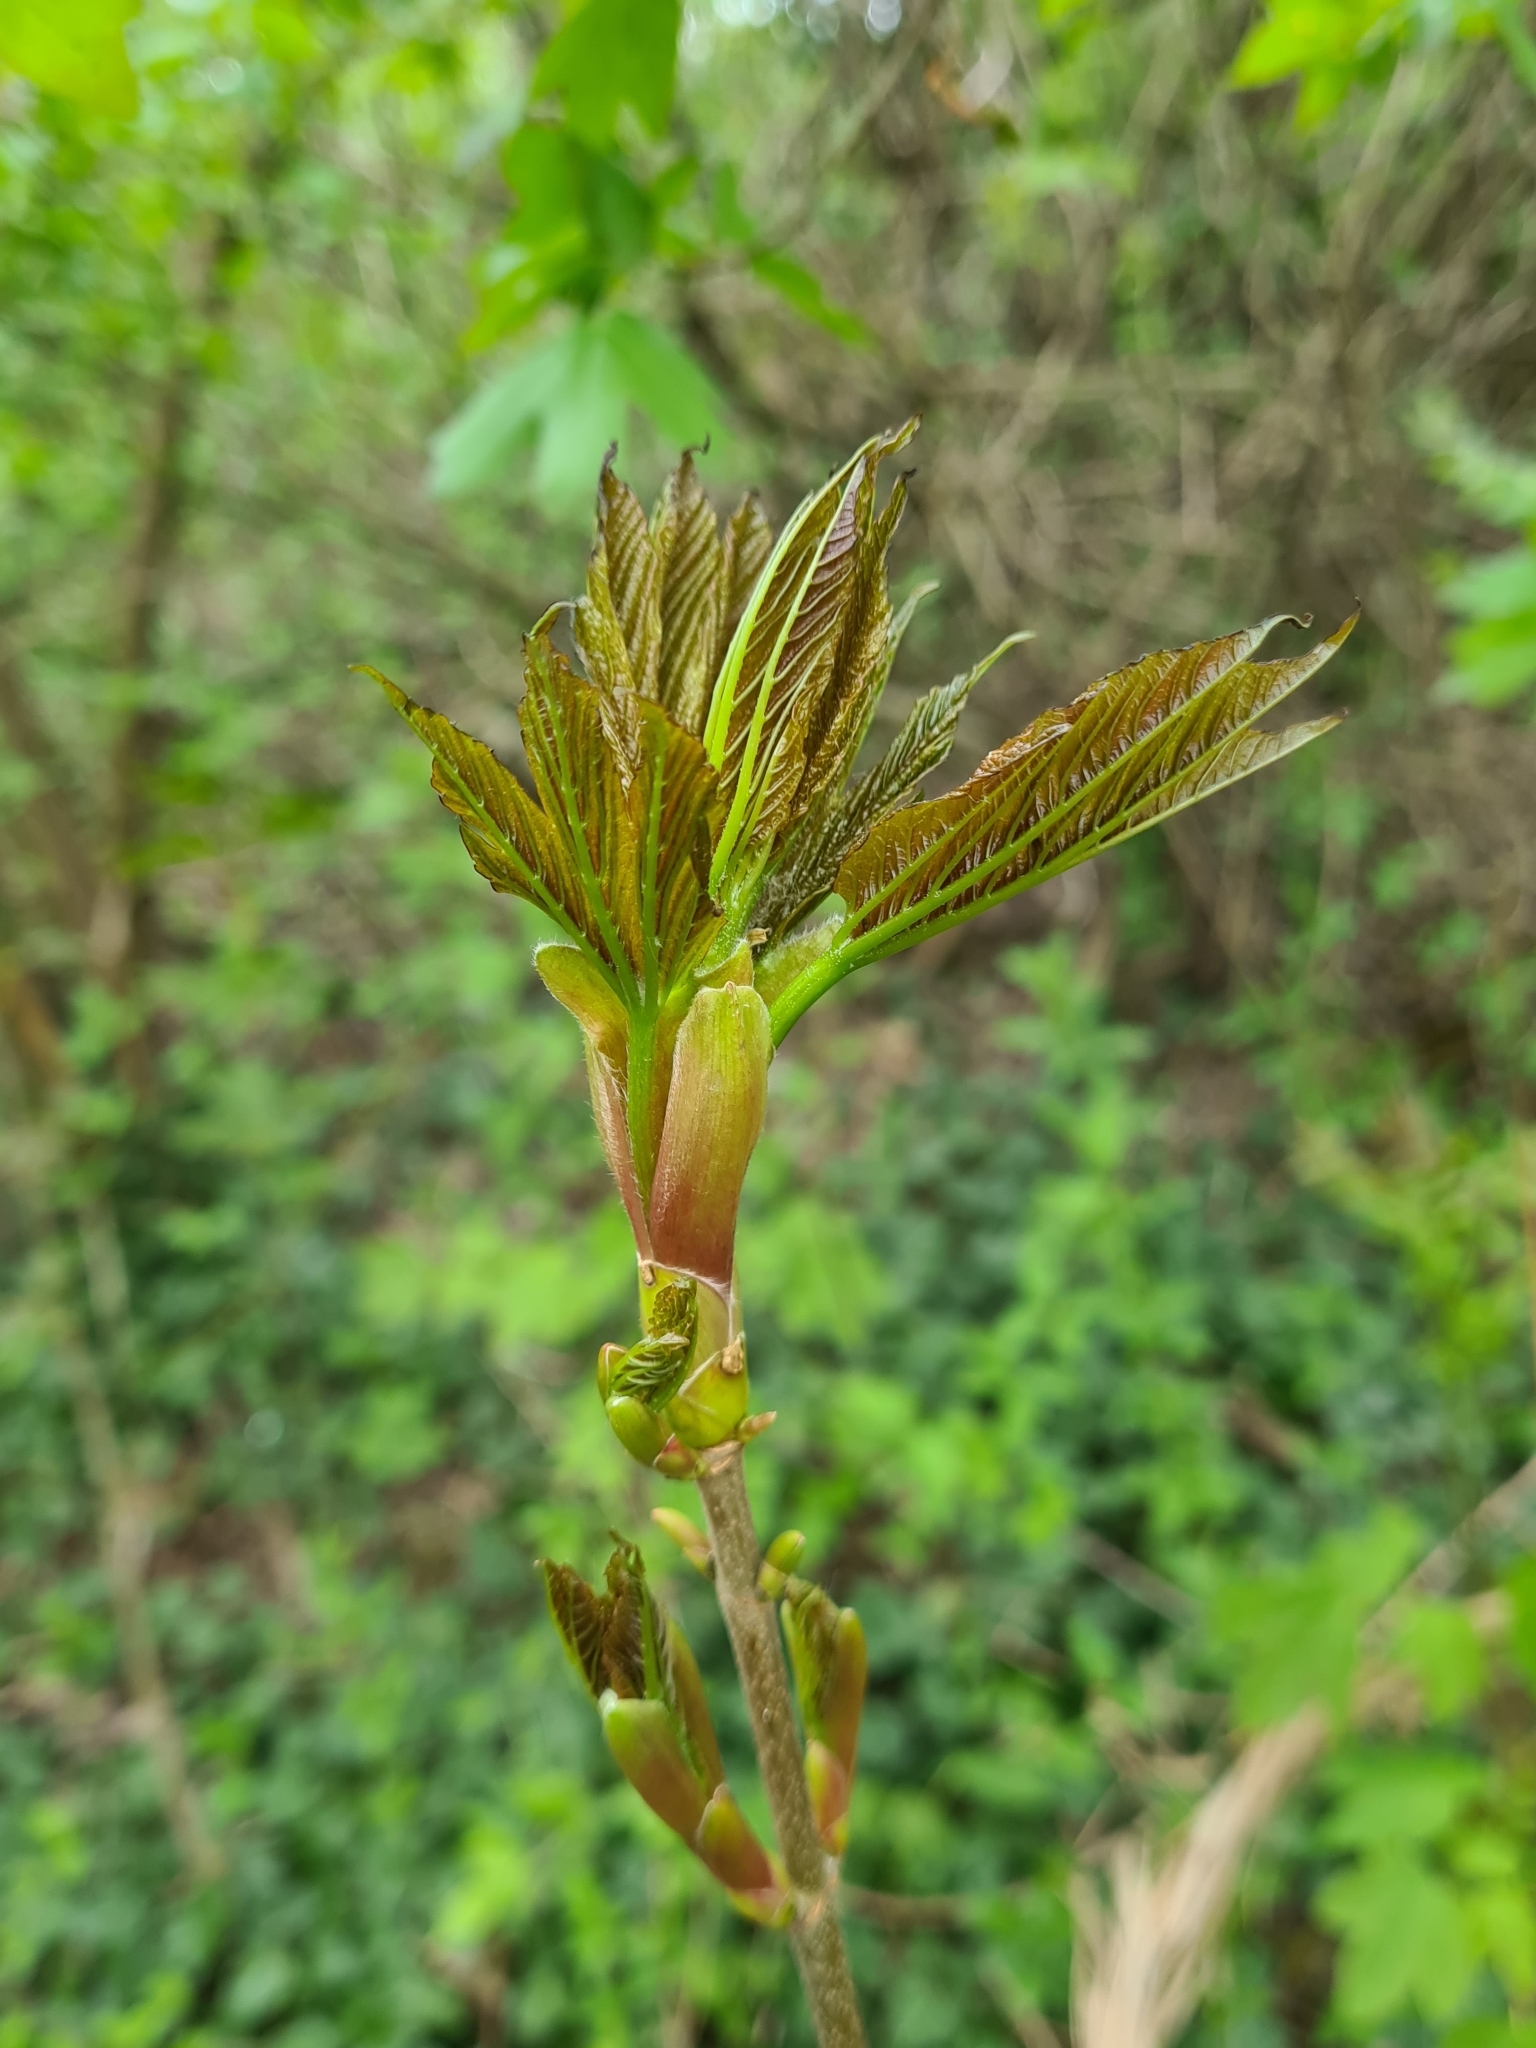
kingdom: Plantae
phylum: Tracheophyta
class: Magnoliopsida
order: Sapindales
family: Sapindaceae
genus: Acer
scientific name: Acer pseudoplatanus
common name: Sycamore
